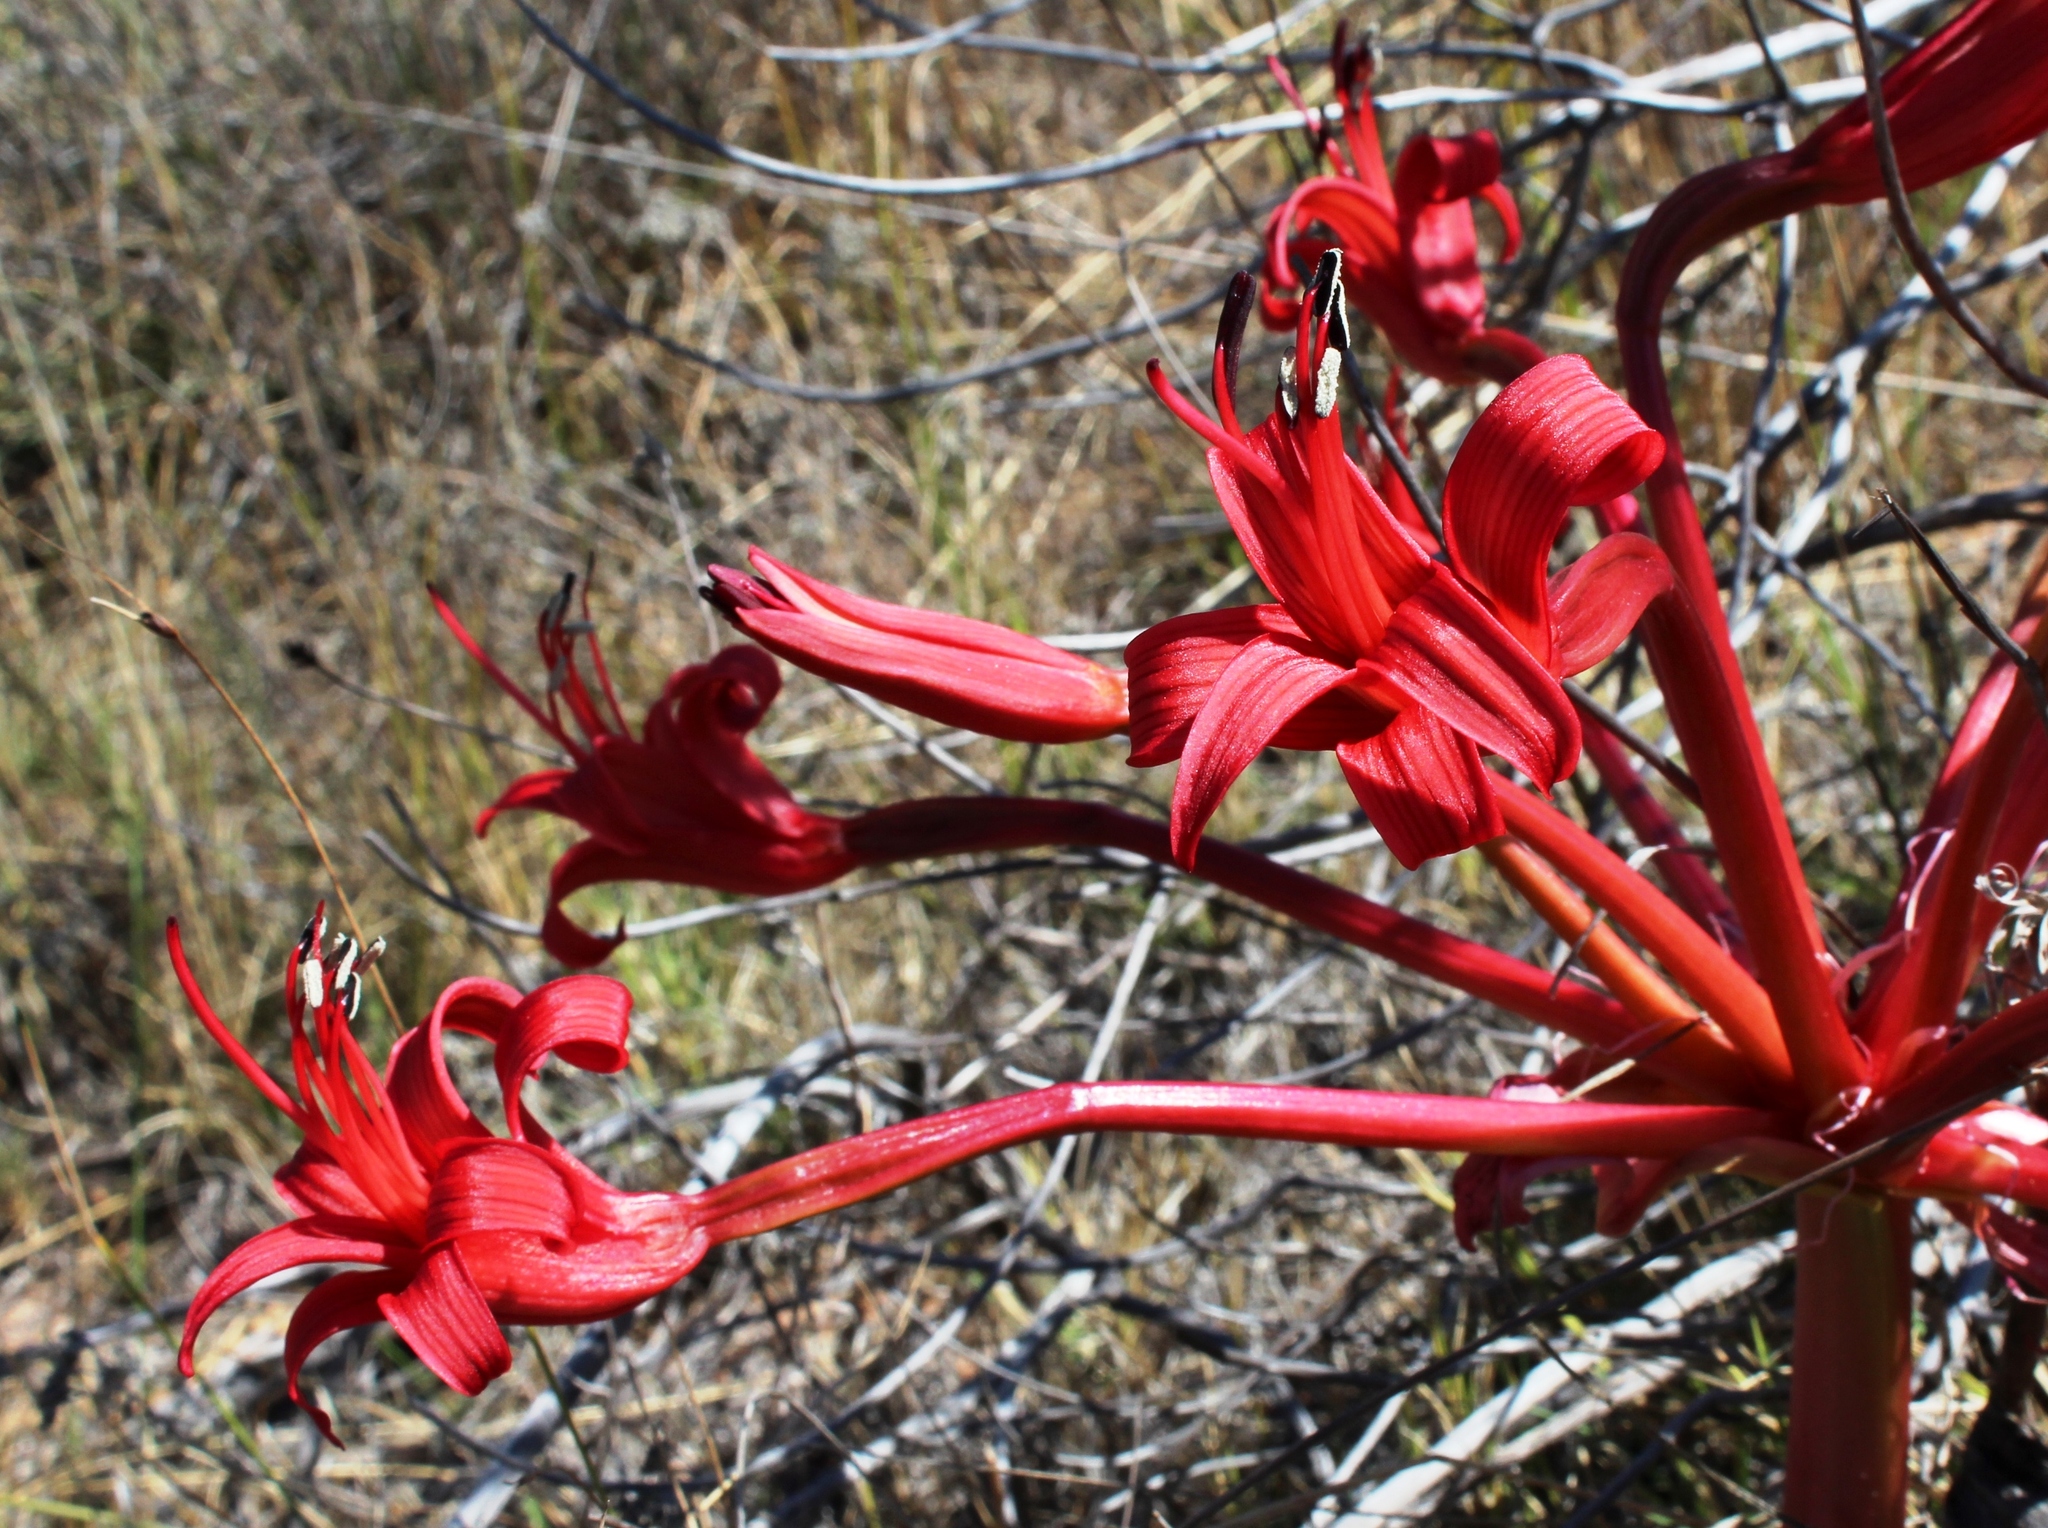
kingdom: Plantae
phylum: Tracheophyta
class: Liliopsida
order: Asparagales
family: Amaryllidaceae
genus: Brunsvigia
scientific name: Brunsvigia orientalis
